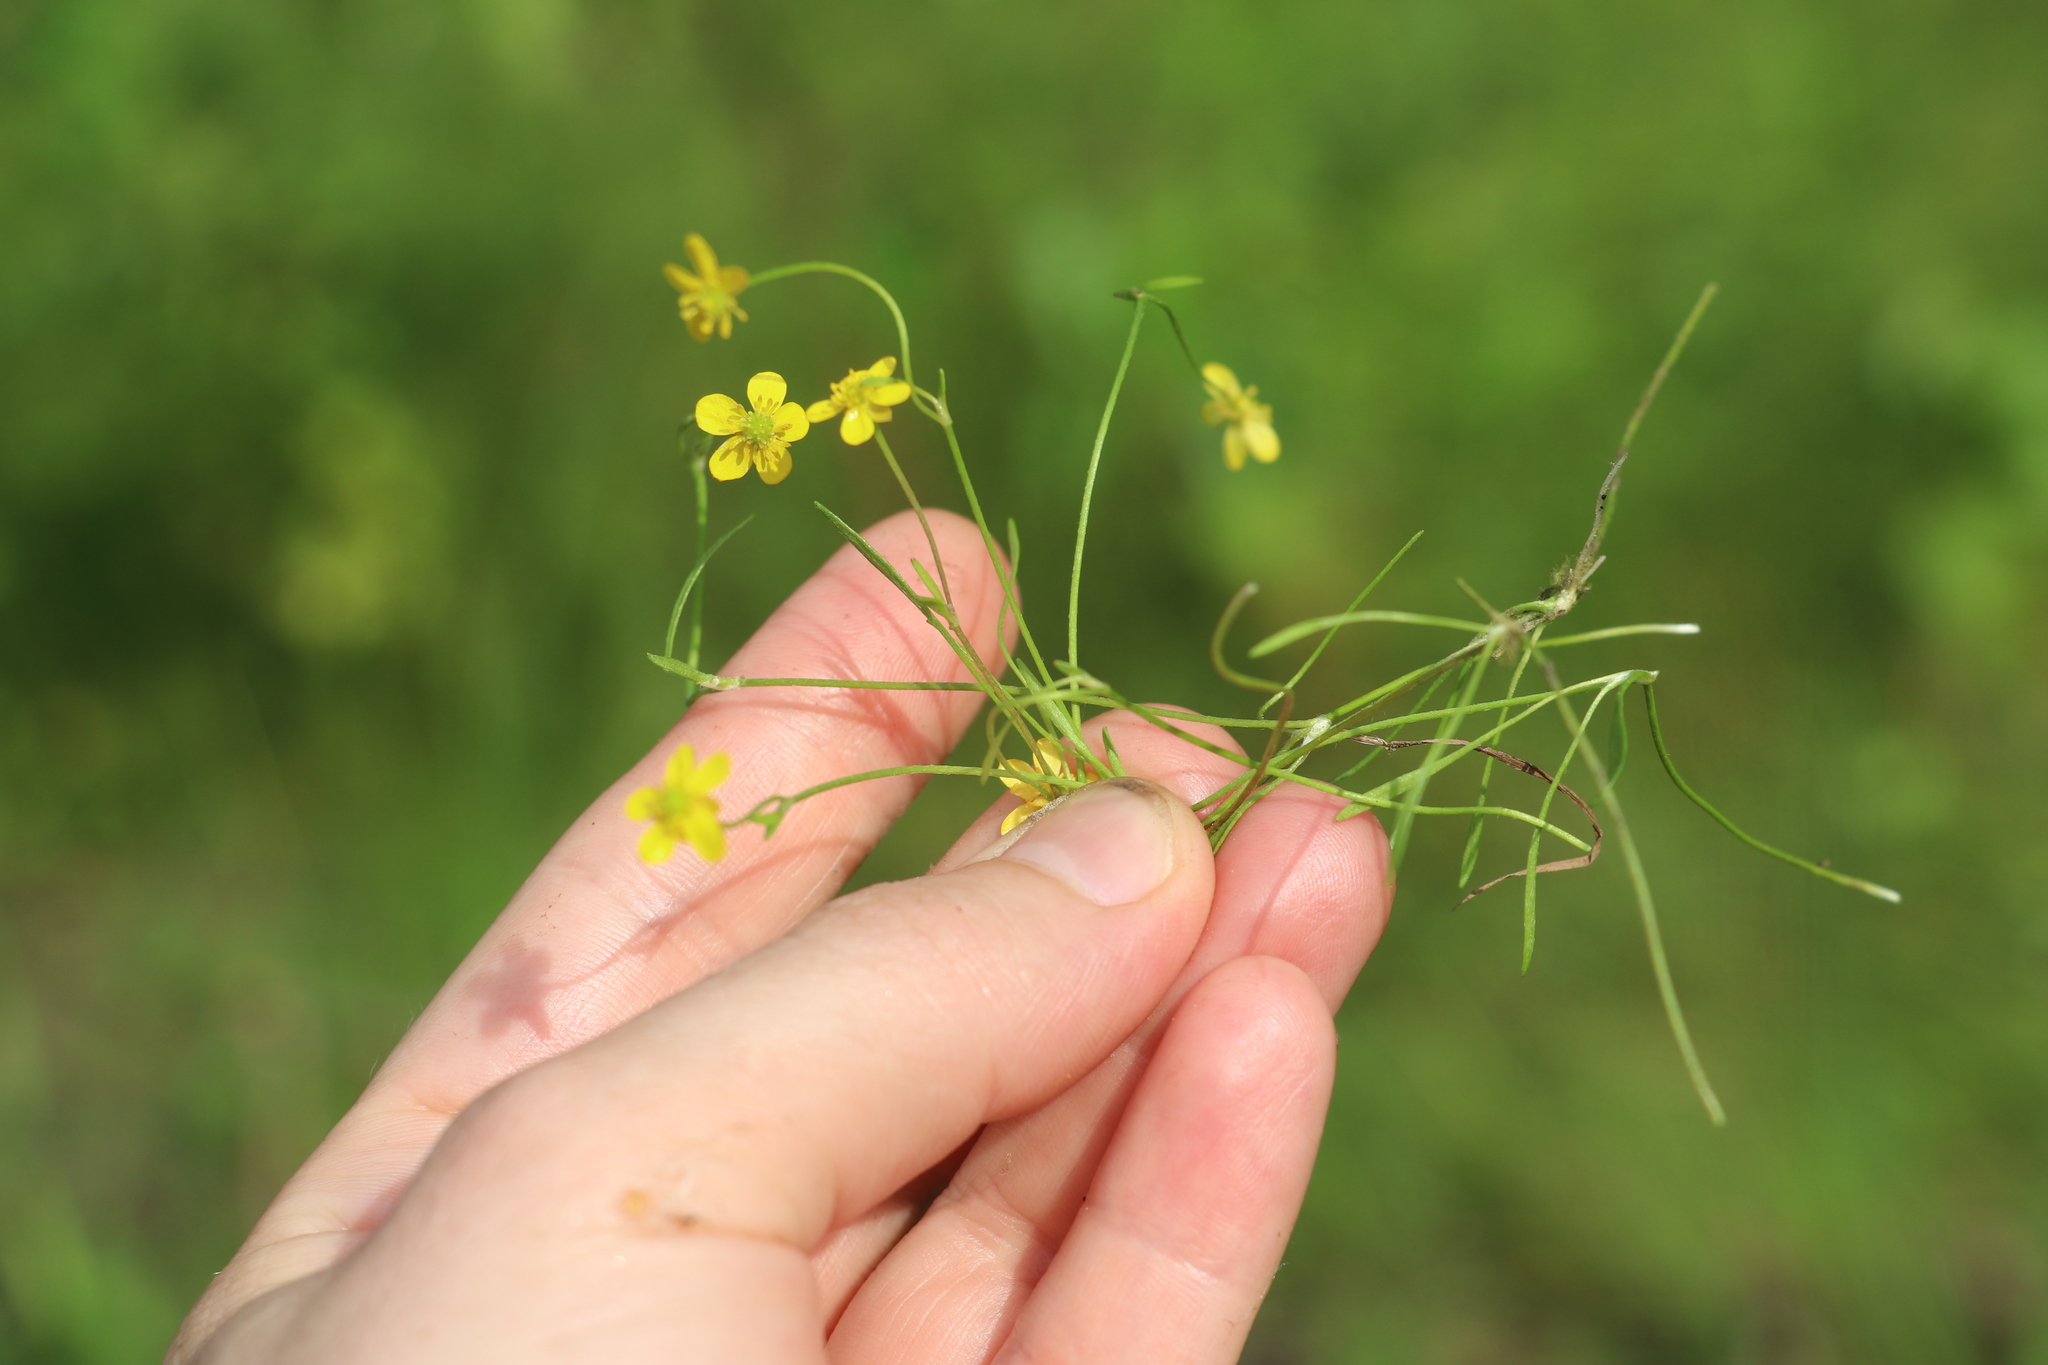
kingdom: Plantae
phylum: Tracheophyta
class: Magnoliopsida
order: Ranunculales
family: Ranunculaceae
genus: Ranunculus
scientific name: Ranunculus flammula
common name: Lesser spearwort
